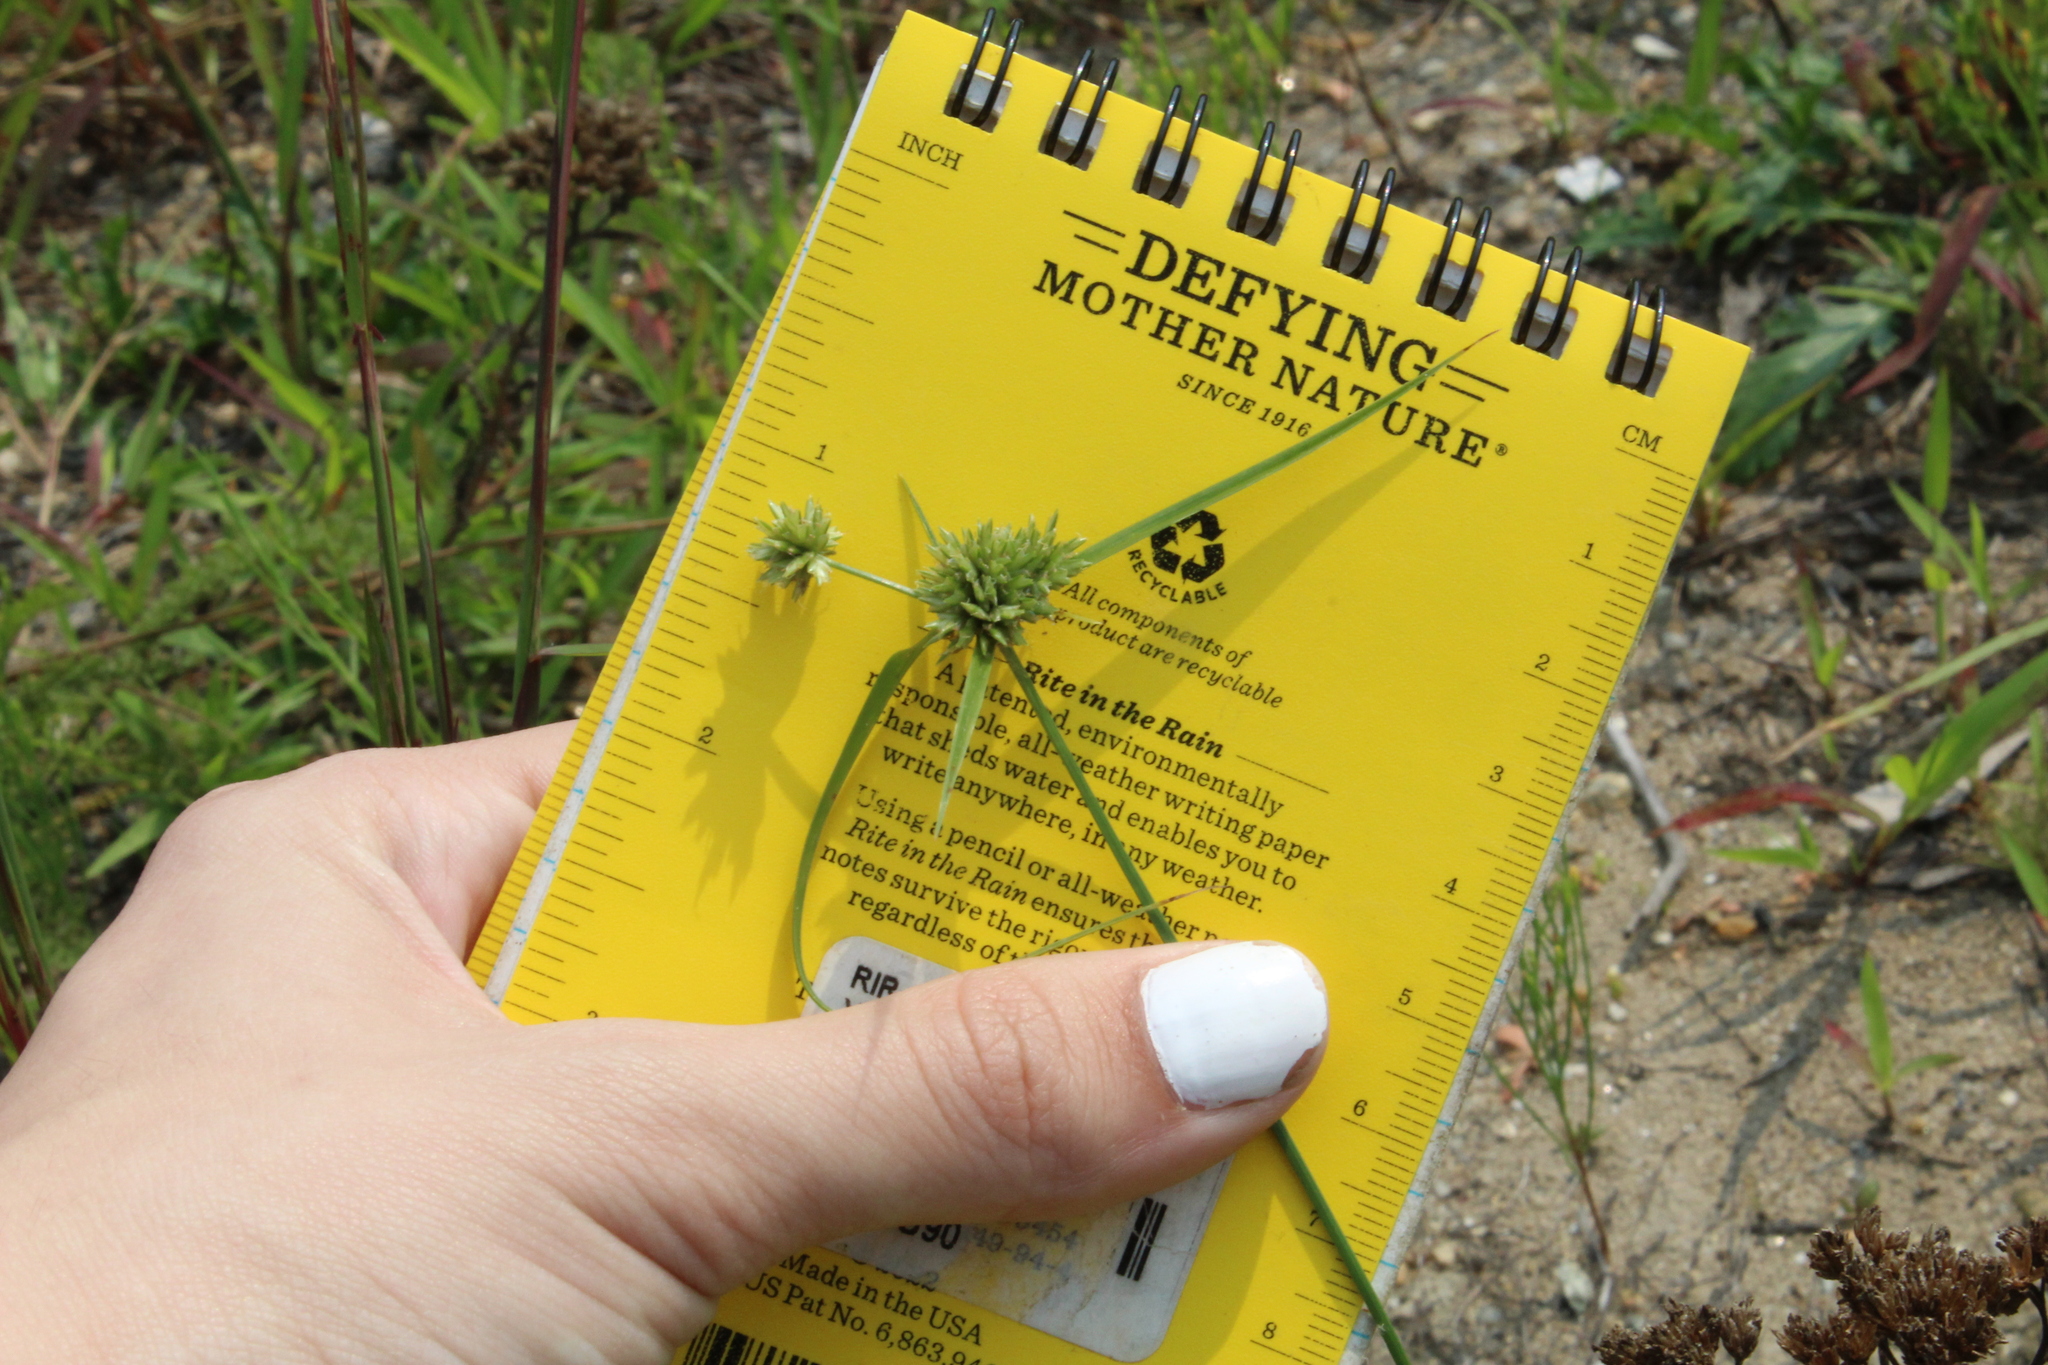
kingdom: Plantae
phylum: Tracheophyta
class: Liliopsida
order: Poales
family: Cyperaceae
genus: Cyperus
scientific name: Cyperus lupulinus
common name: Great plains flatsedge
